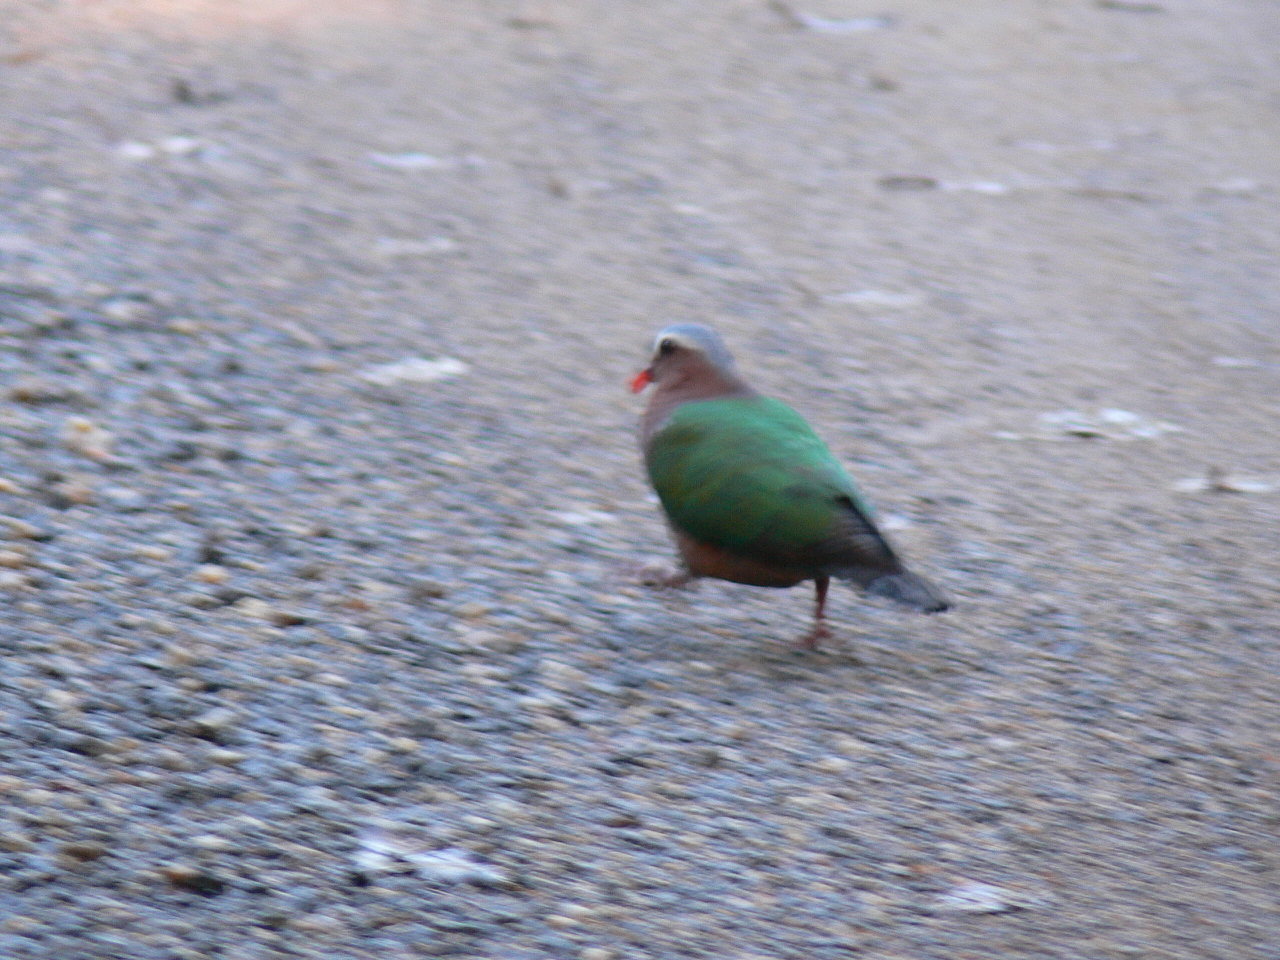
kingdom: Animalia
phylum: Chordata
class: Aves
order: Columbiformes
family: Columbidae
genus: Chalcophaps
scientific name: Chalcophaps indica
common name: Common emerald dove
